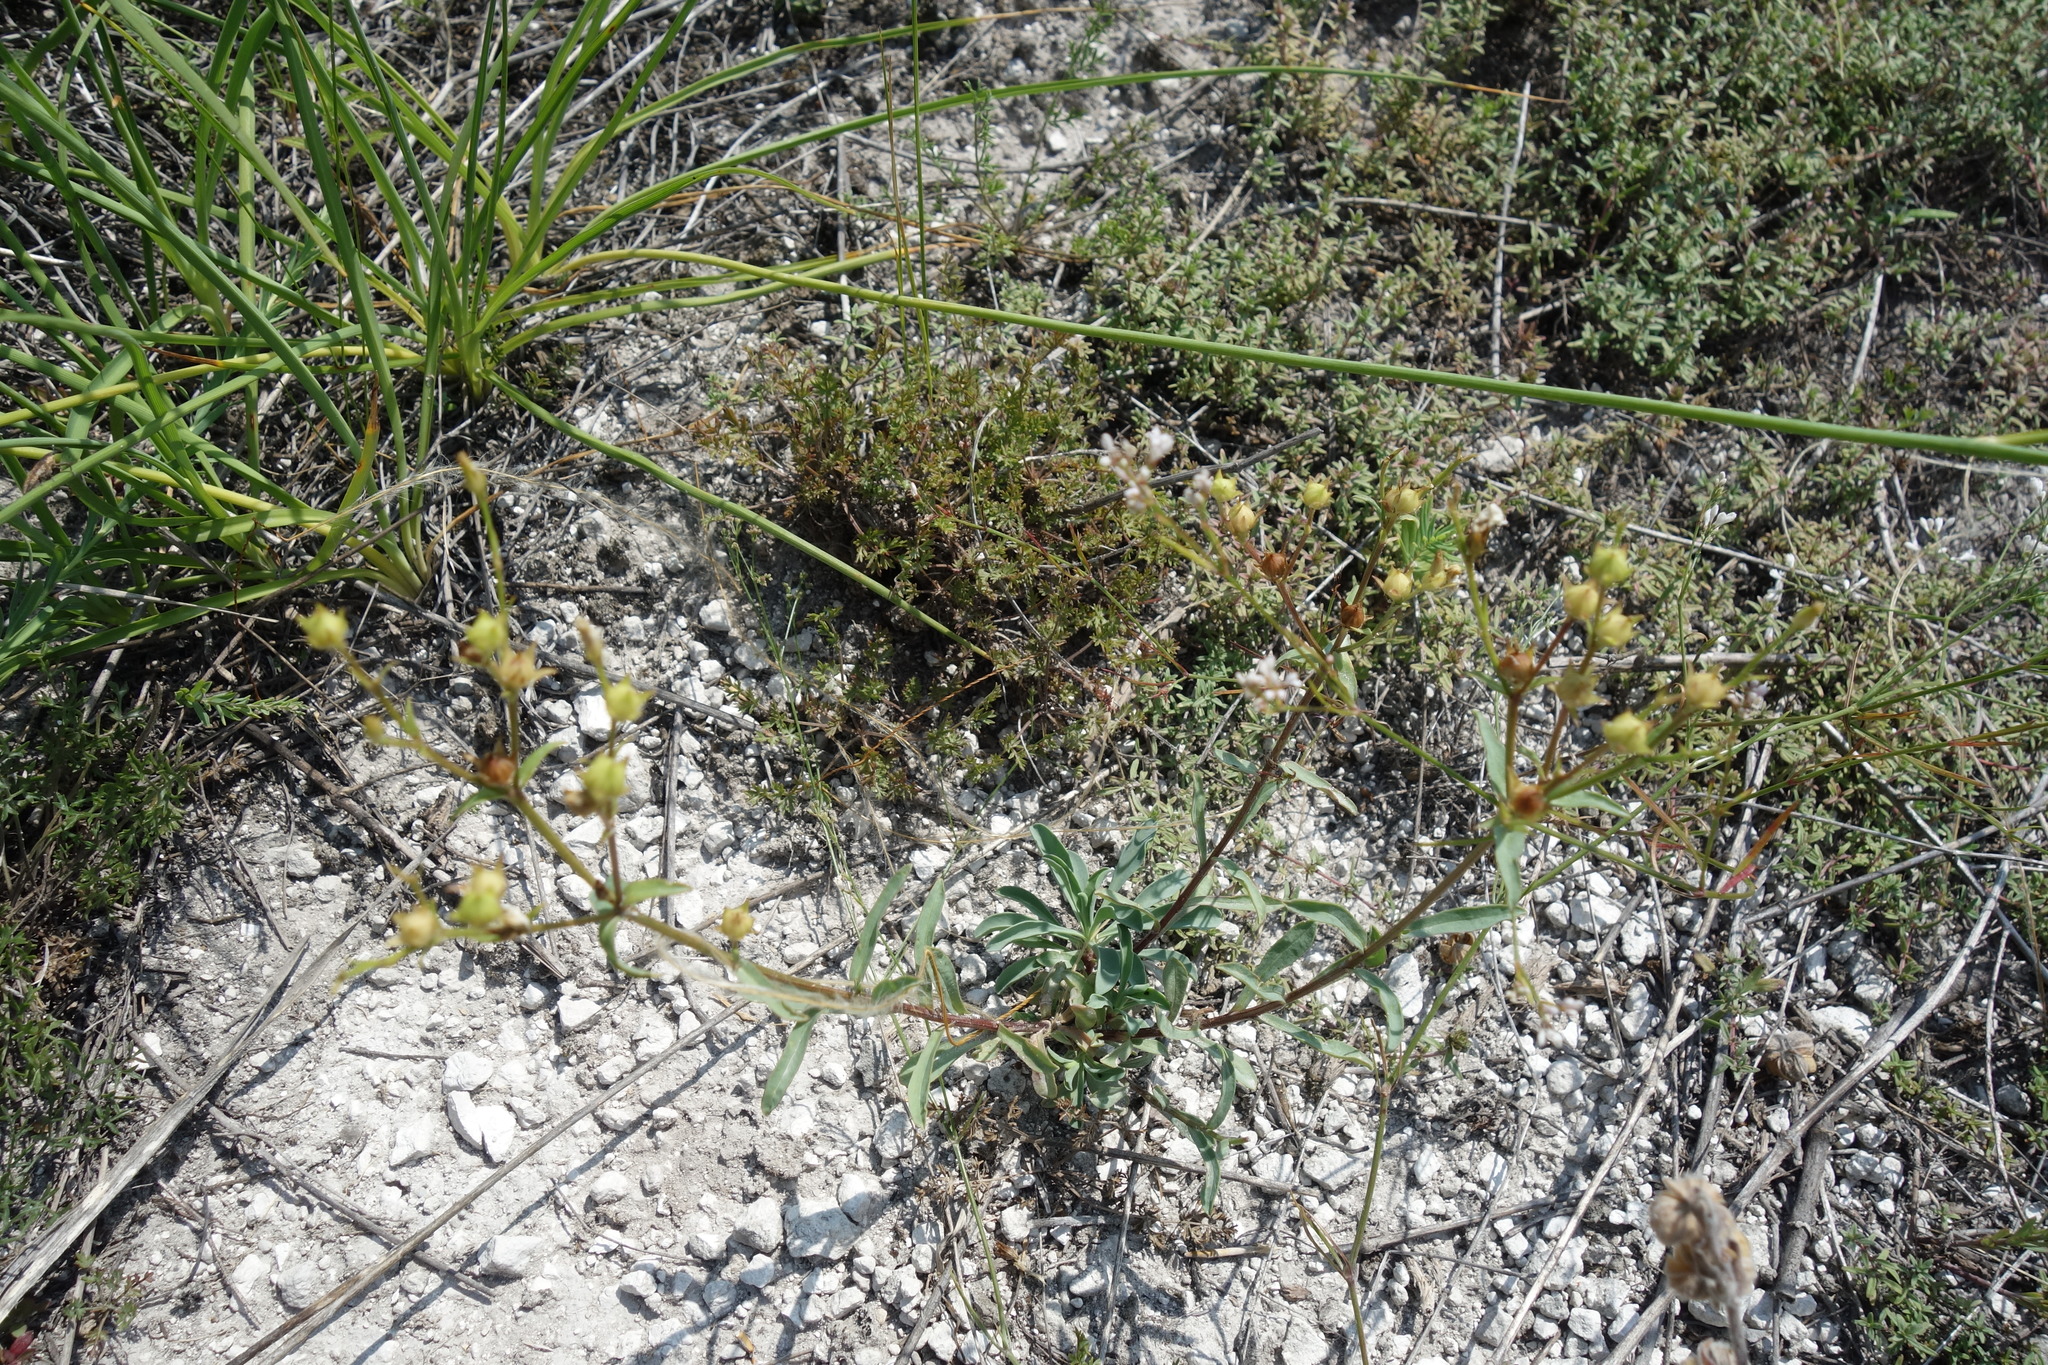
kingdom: Plantae
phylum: Tracheophyta
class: Magnoliopsida
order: Malpighiales
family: Linaceae
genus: Linum
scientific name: Linum ucranicum
